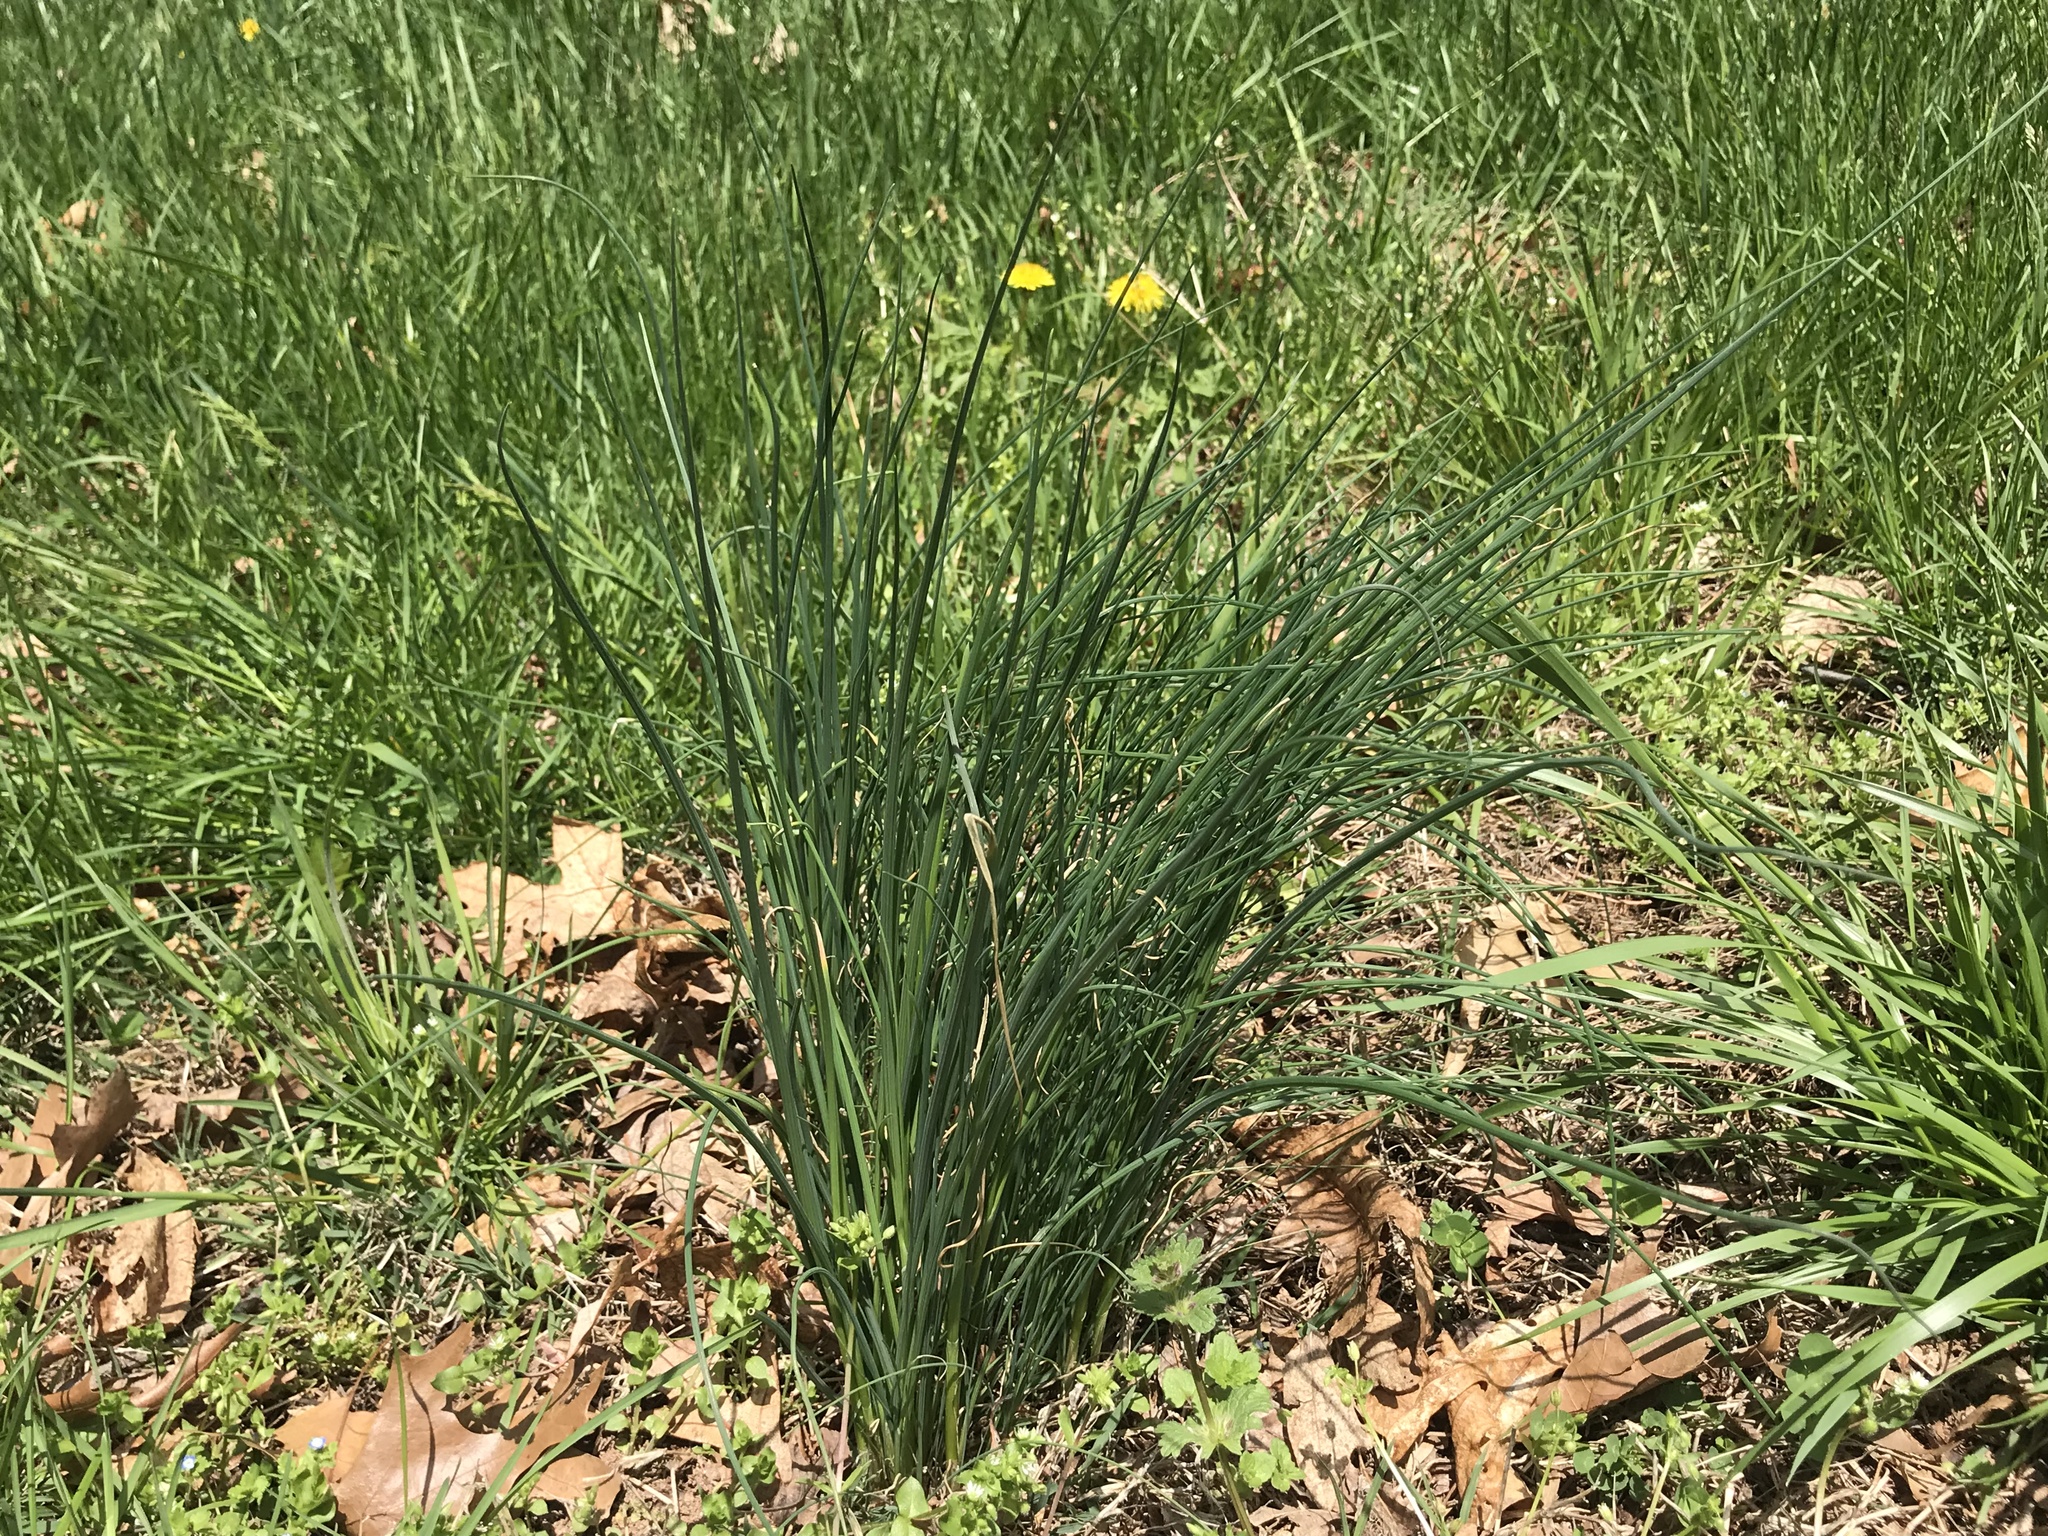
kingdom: Plantae
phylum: Tracheophyta
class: Liliopsida
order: Asparagales
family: Amaryllidaceae
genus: Allium
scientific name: Allium vineale
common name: Crow garlic
